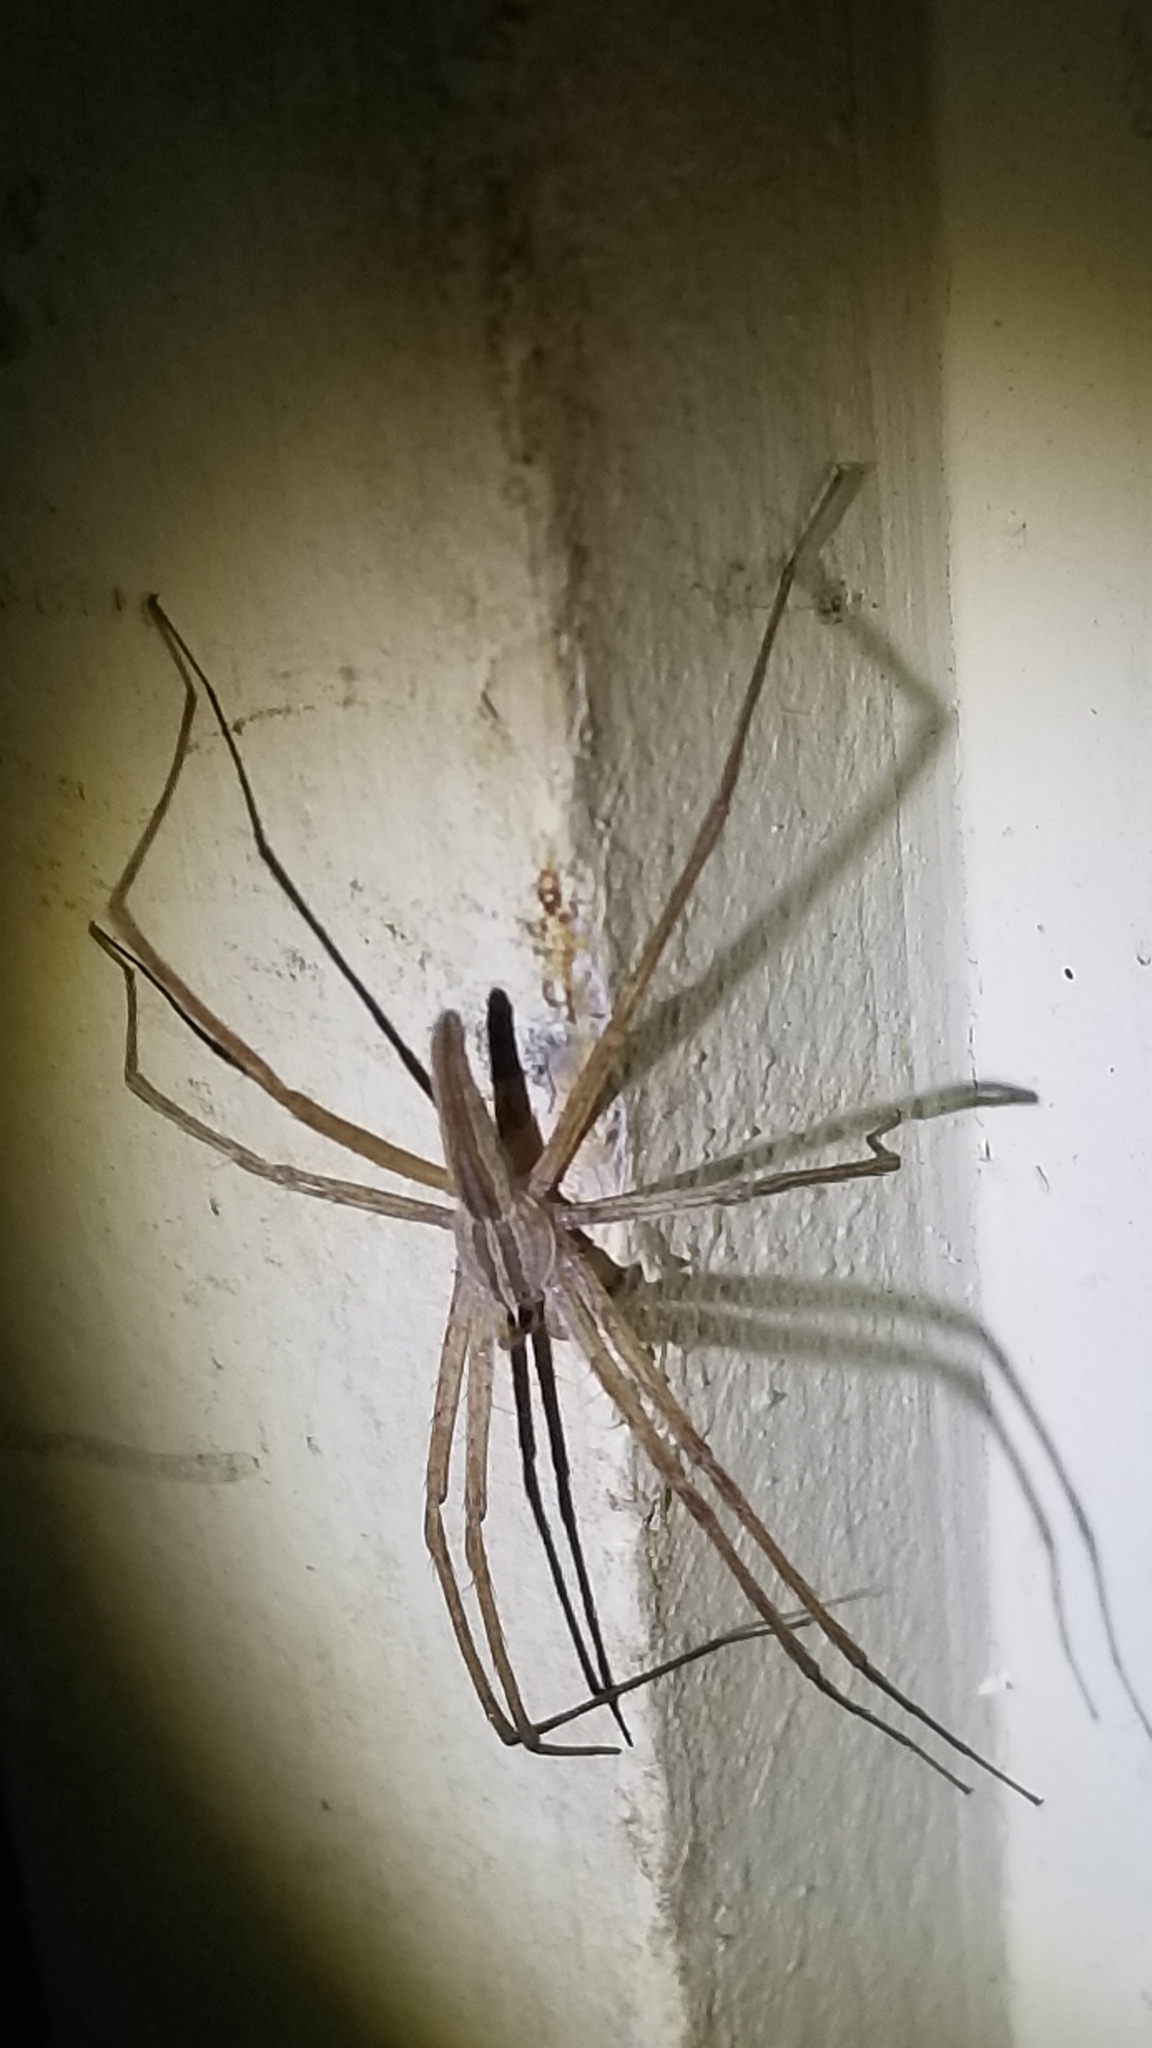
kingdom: Animalia
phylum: Arthropoda
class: Arachnida
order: Araneae
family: Pisauridae
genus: Pisaurina
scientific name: Pisaurina dubia
